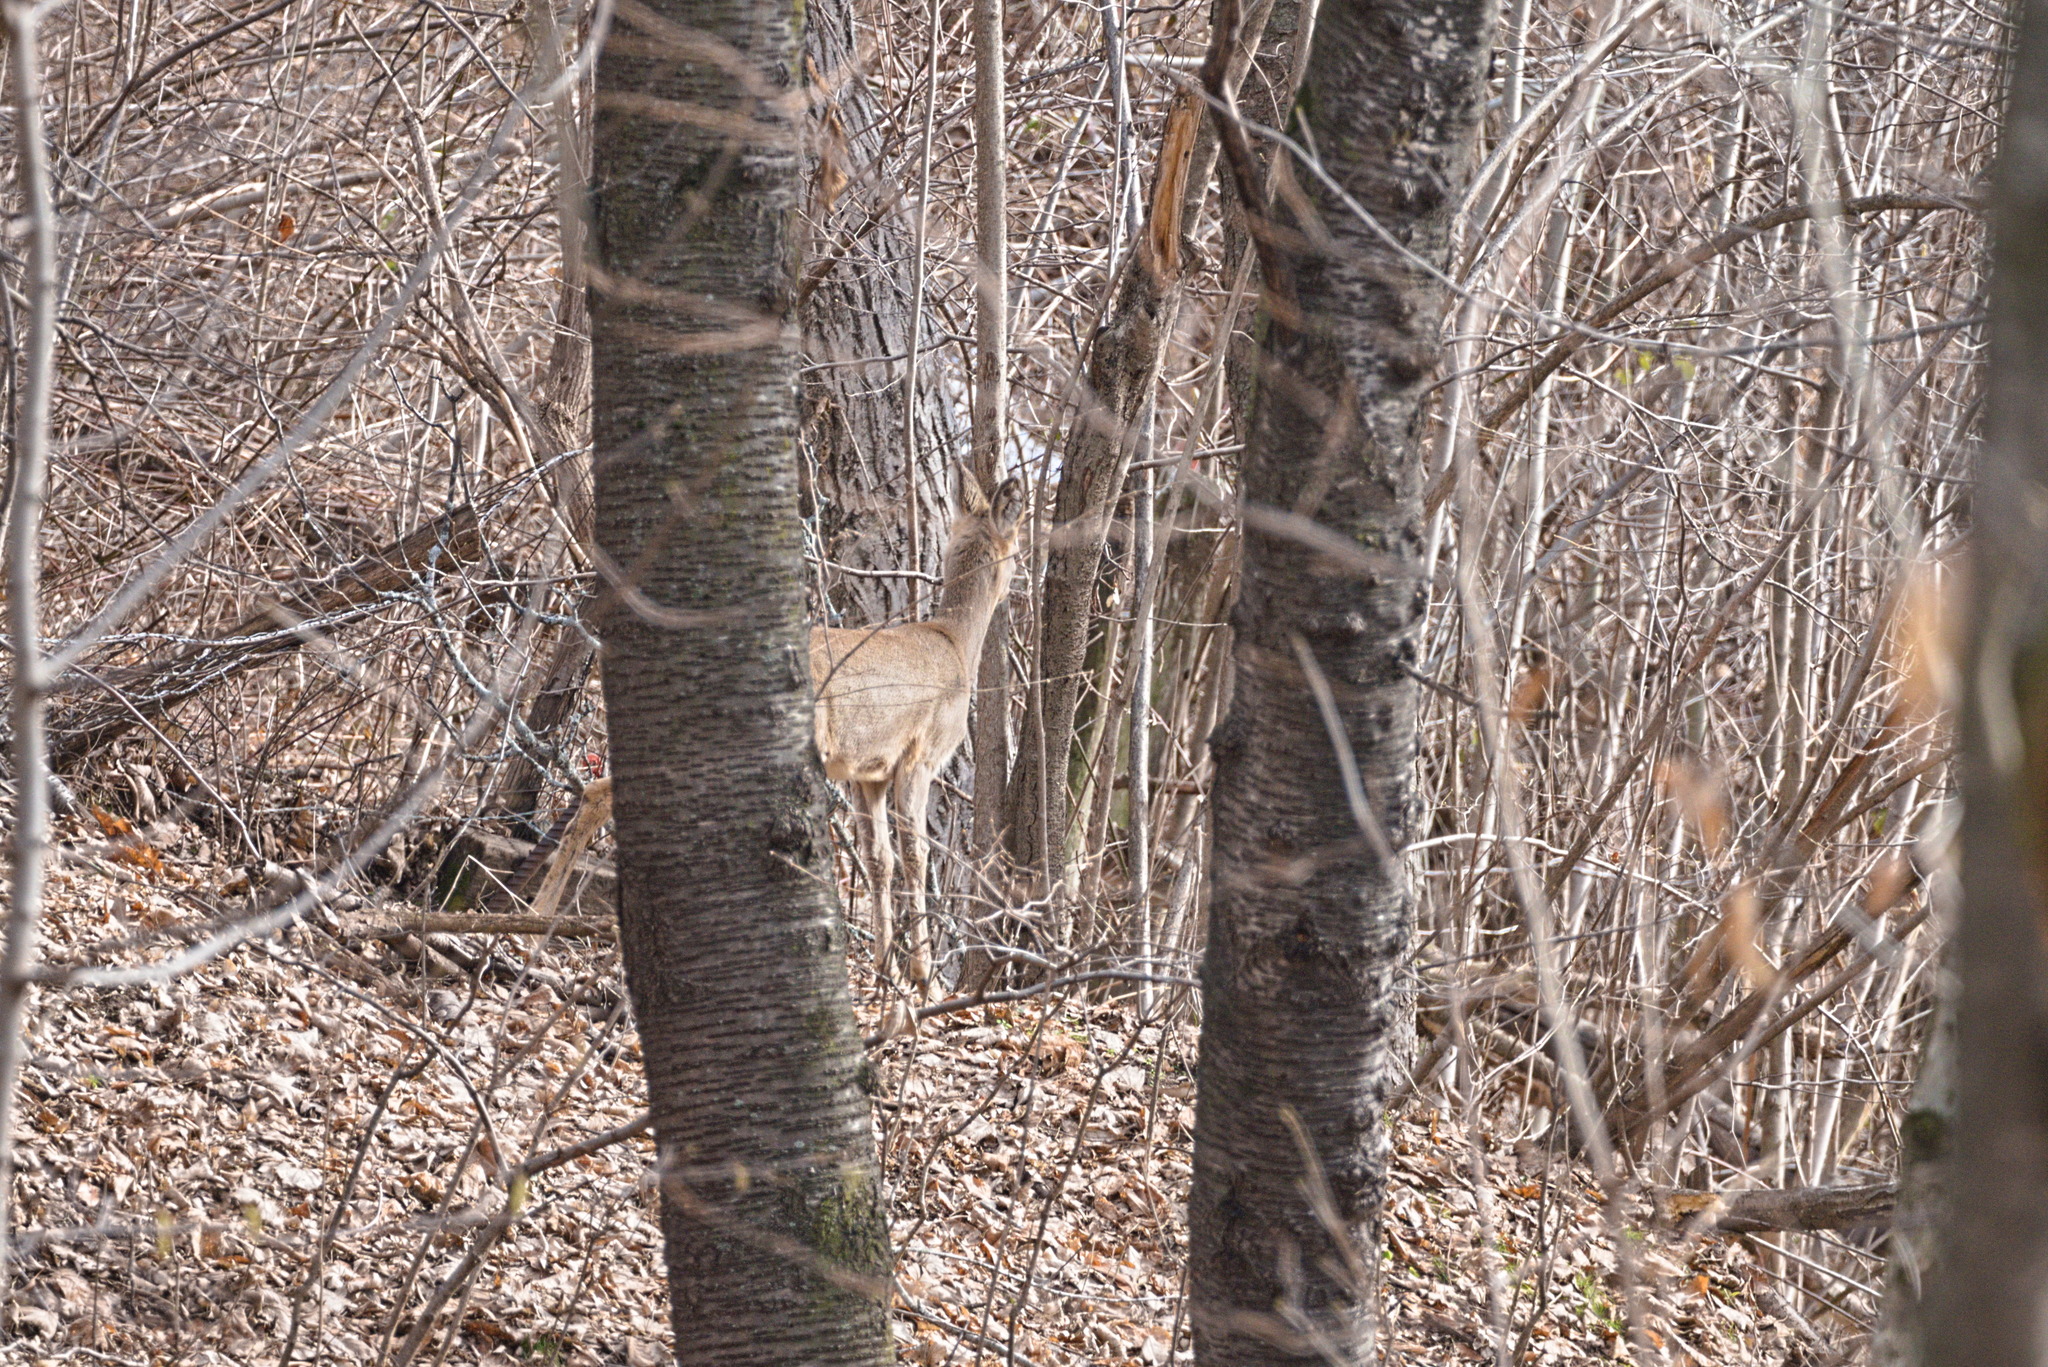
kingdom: Animalia
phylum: Chordata
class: Mammalia
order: Artiodactyla
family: Cervidae
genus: Capreolus
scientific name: Capreolus capreolus
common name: Western roe deer
